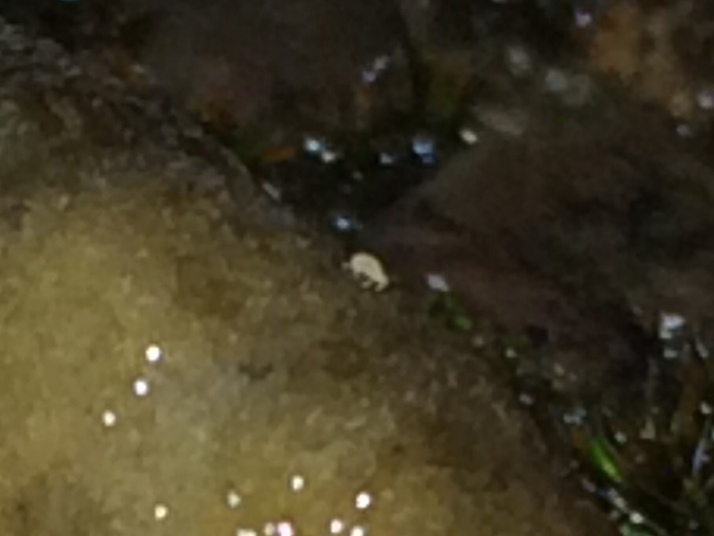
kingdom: Animalia
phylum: Arthropoda
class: Arachnida
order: Trombidiformes
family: Ereynetidae
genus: Riccardoella
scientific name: Riccardoella oudemansi
